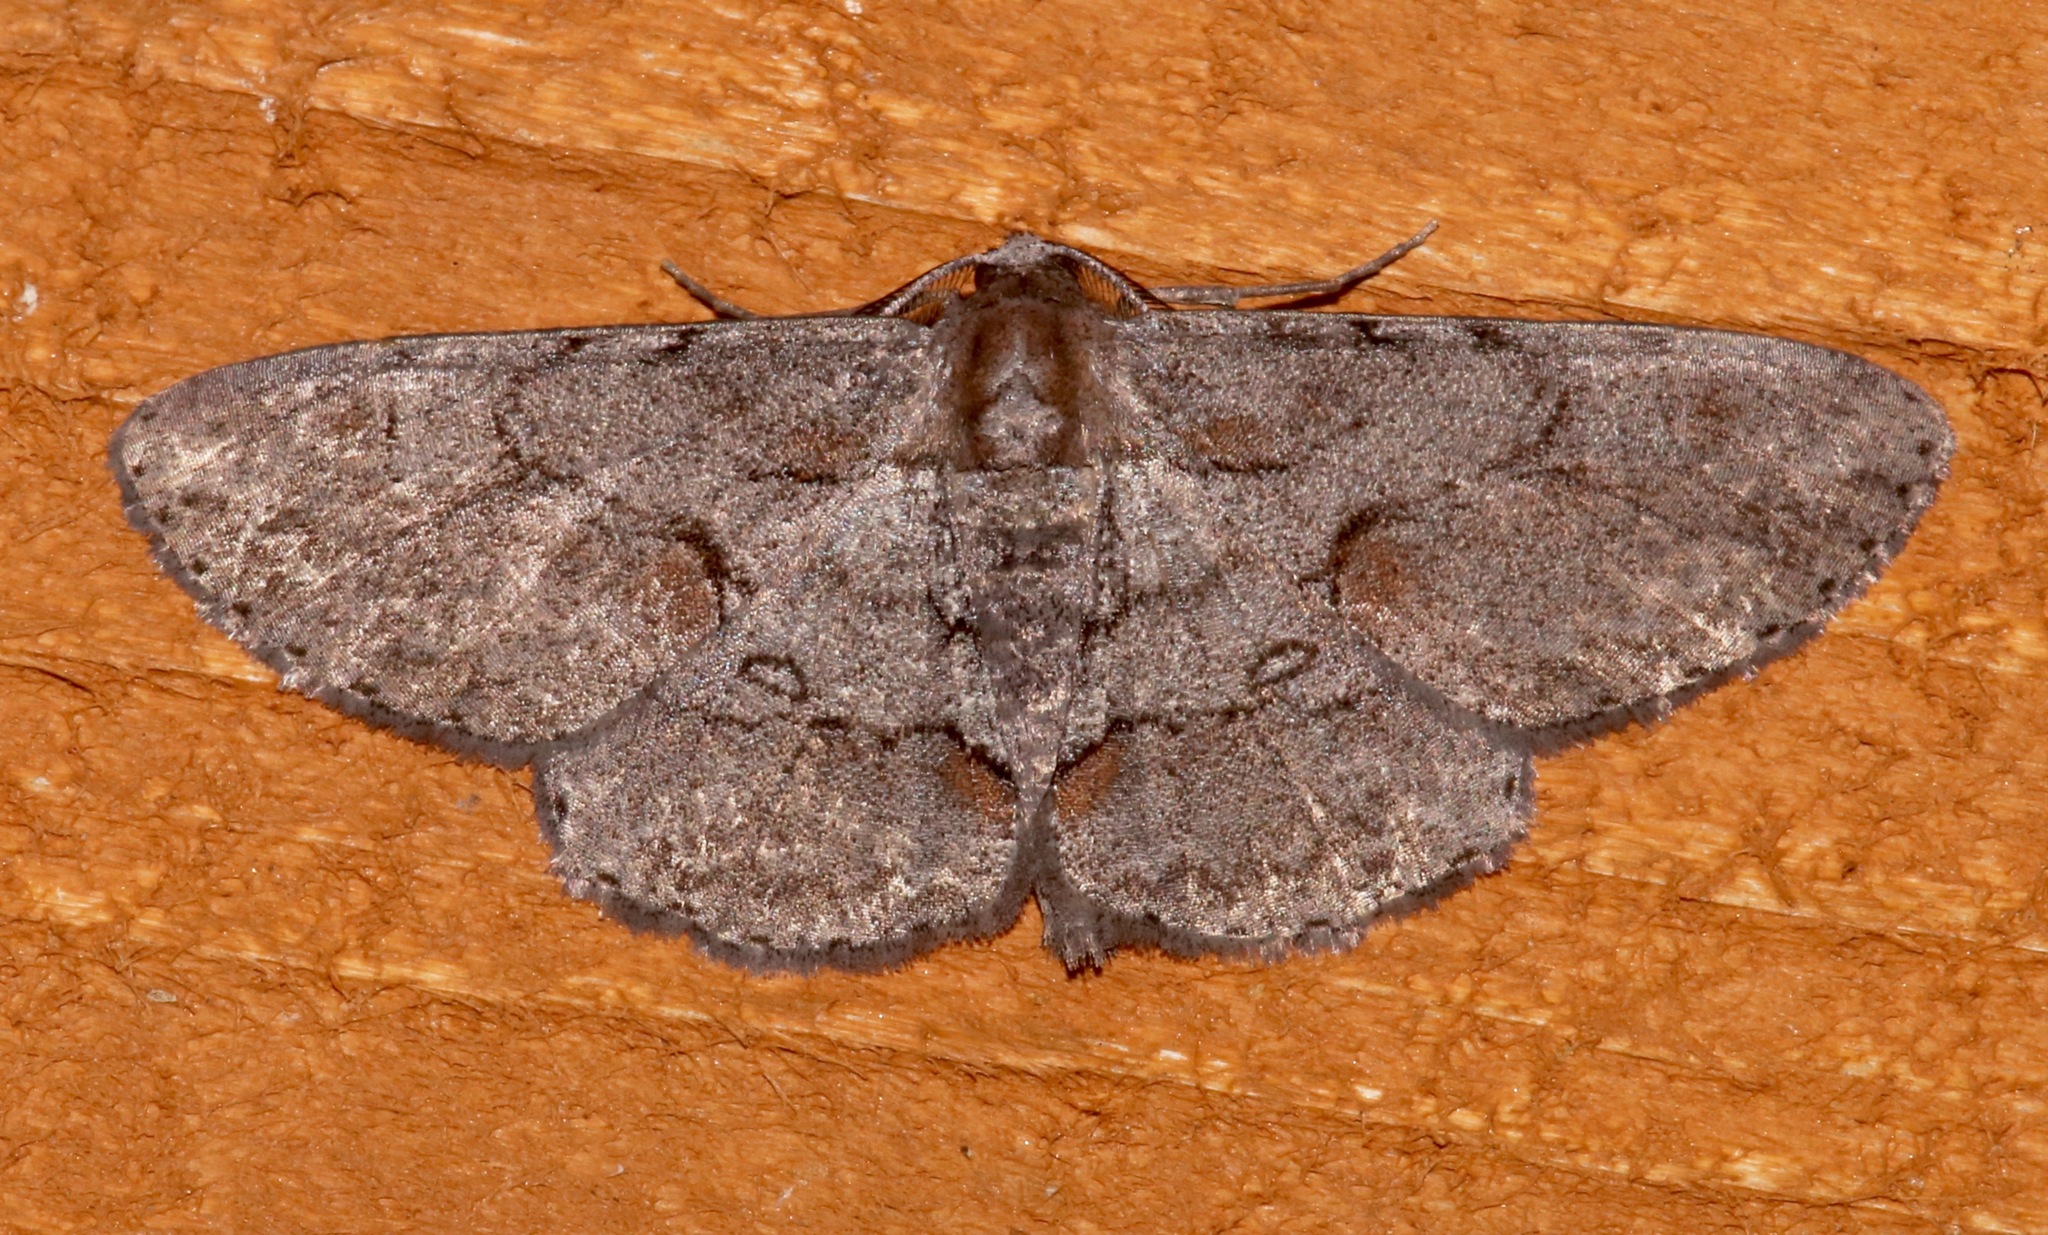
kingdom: Animalia
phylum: Arthropoda
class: Insecta
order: Lepidoptera
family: Geometridae
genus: Iridopsis
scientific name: Iridopsis vellivolata
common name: Large purplish gray
